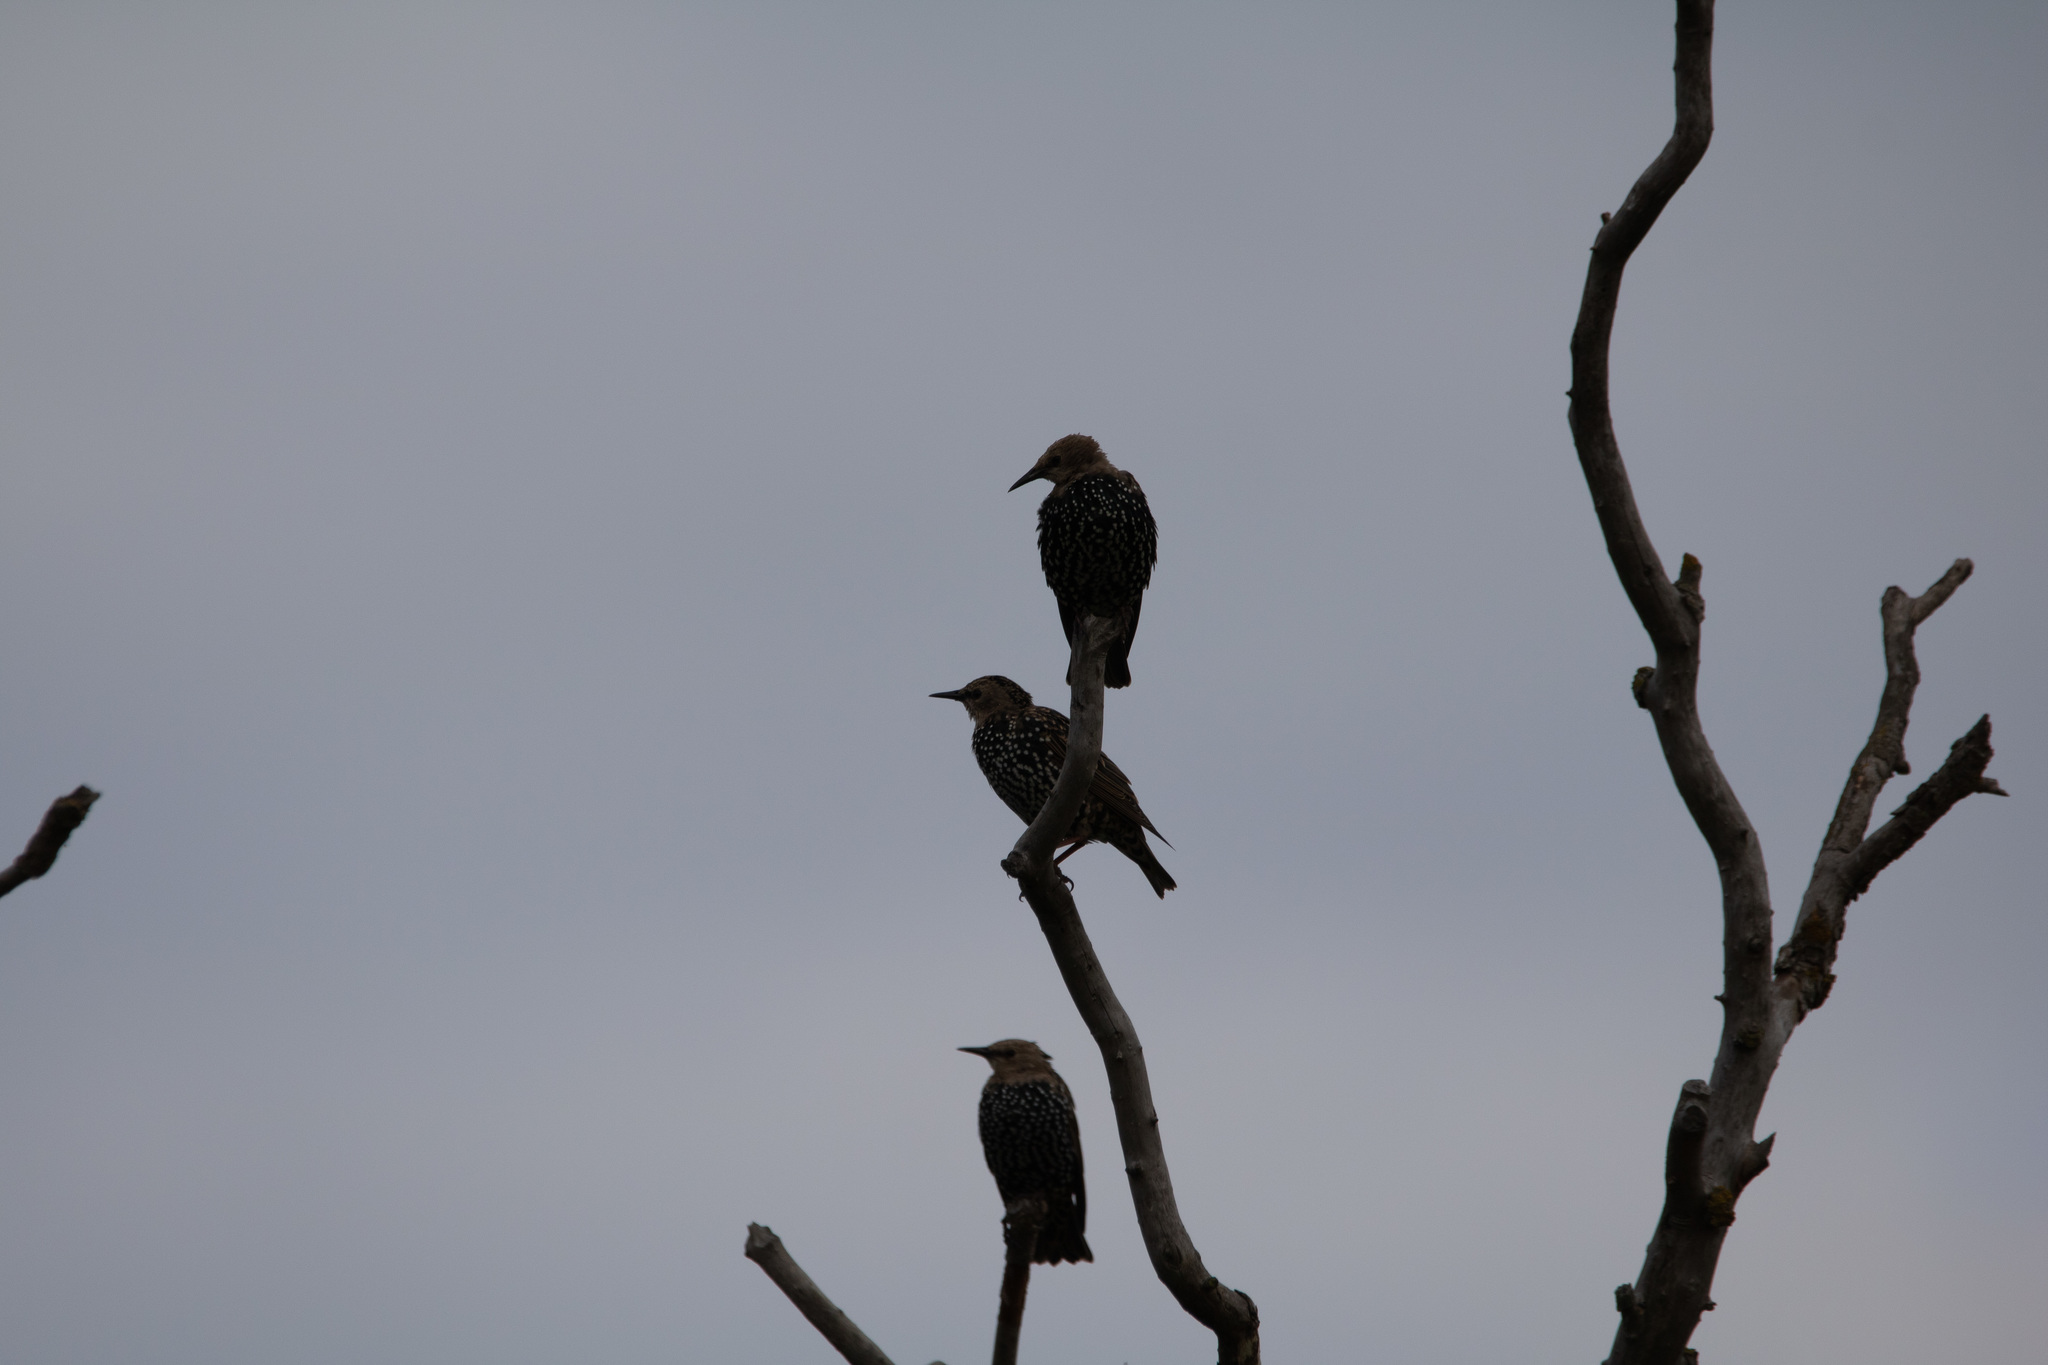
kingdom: Animalia
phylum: Chordata
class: Aves
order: Passeriformes
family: Sturnidae
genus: Sturnus
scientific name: Sturnus vulgaris
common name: Common starling
